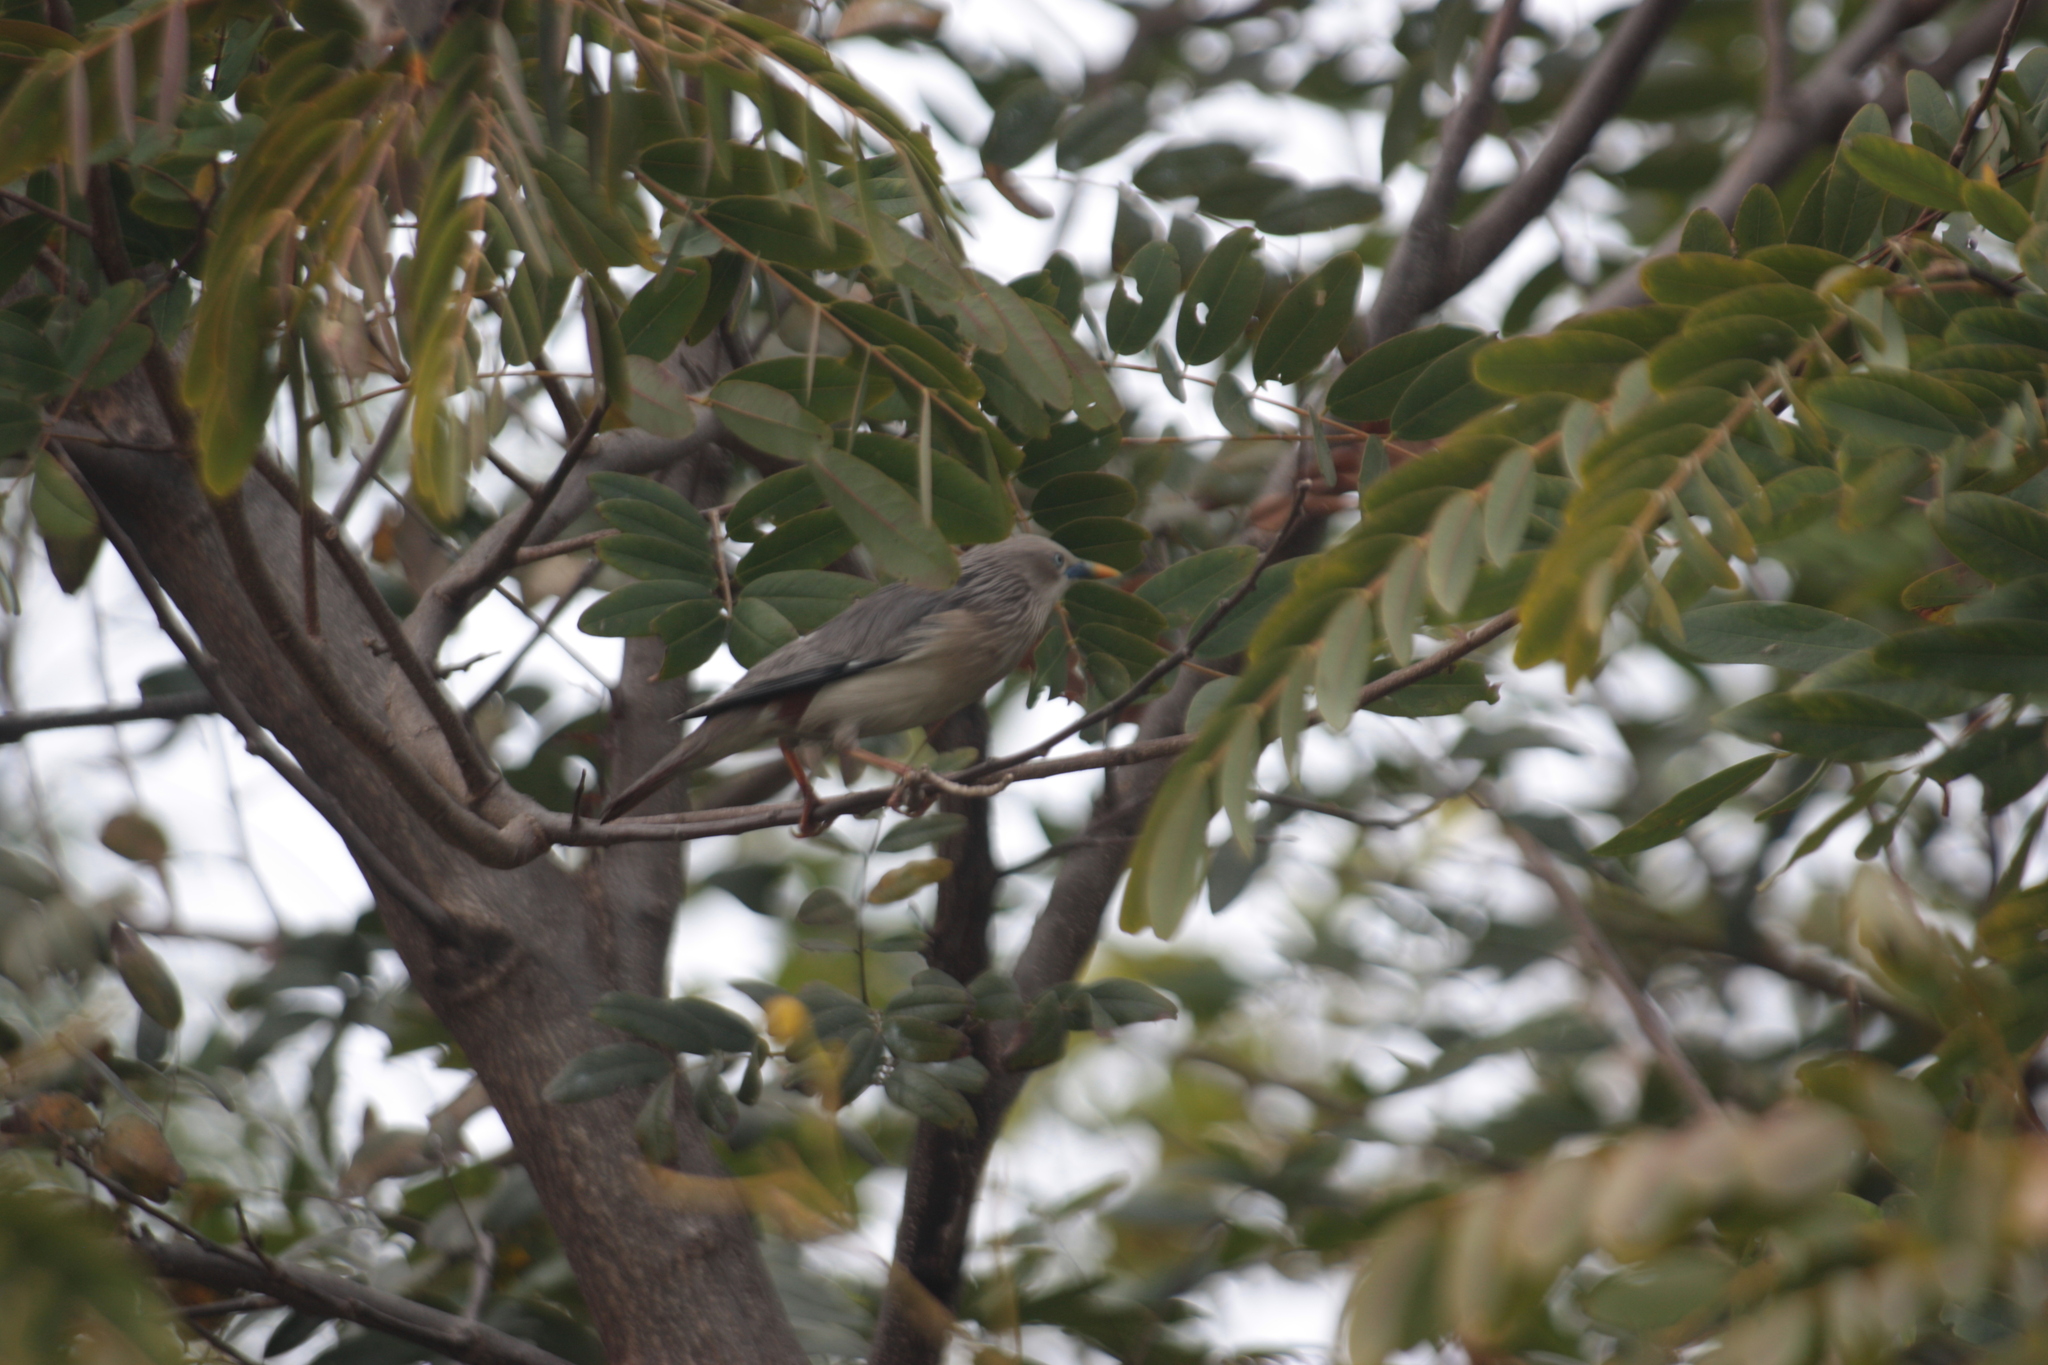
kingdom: Animalia
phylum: Chordata
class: Aves
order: Passeriformes
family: Sturnidae
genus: Sturnia
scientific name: Sturnia malabarica
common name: Chestnut-tailed starling
